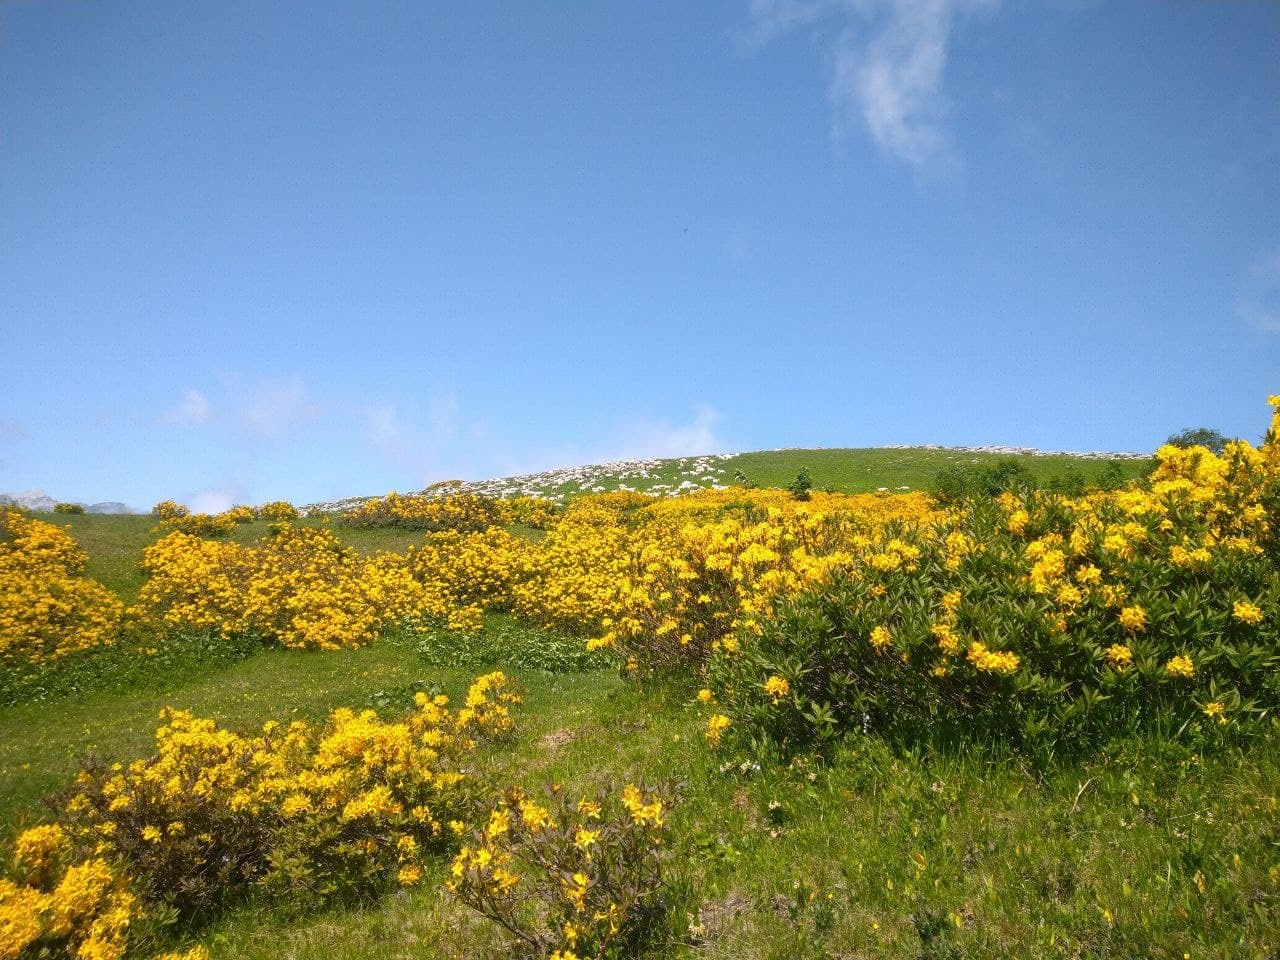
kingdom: Plantae
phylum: Tracheophyta
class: Magnoliopsida
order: Ericales
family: Ericaceae
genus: Rhododendron
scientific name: Rhododendron luteum
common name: Yellow azalea
